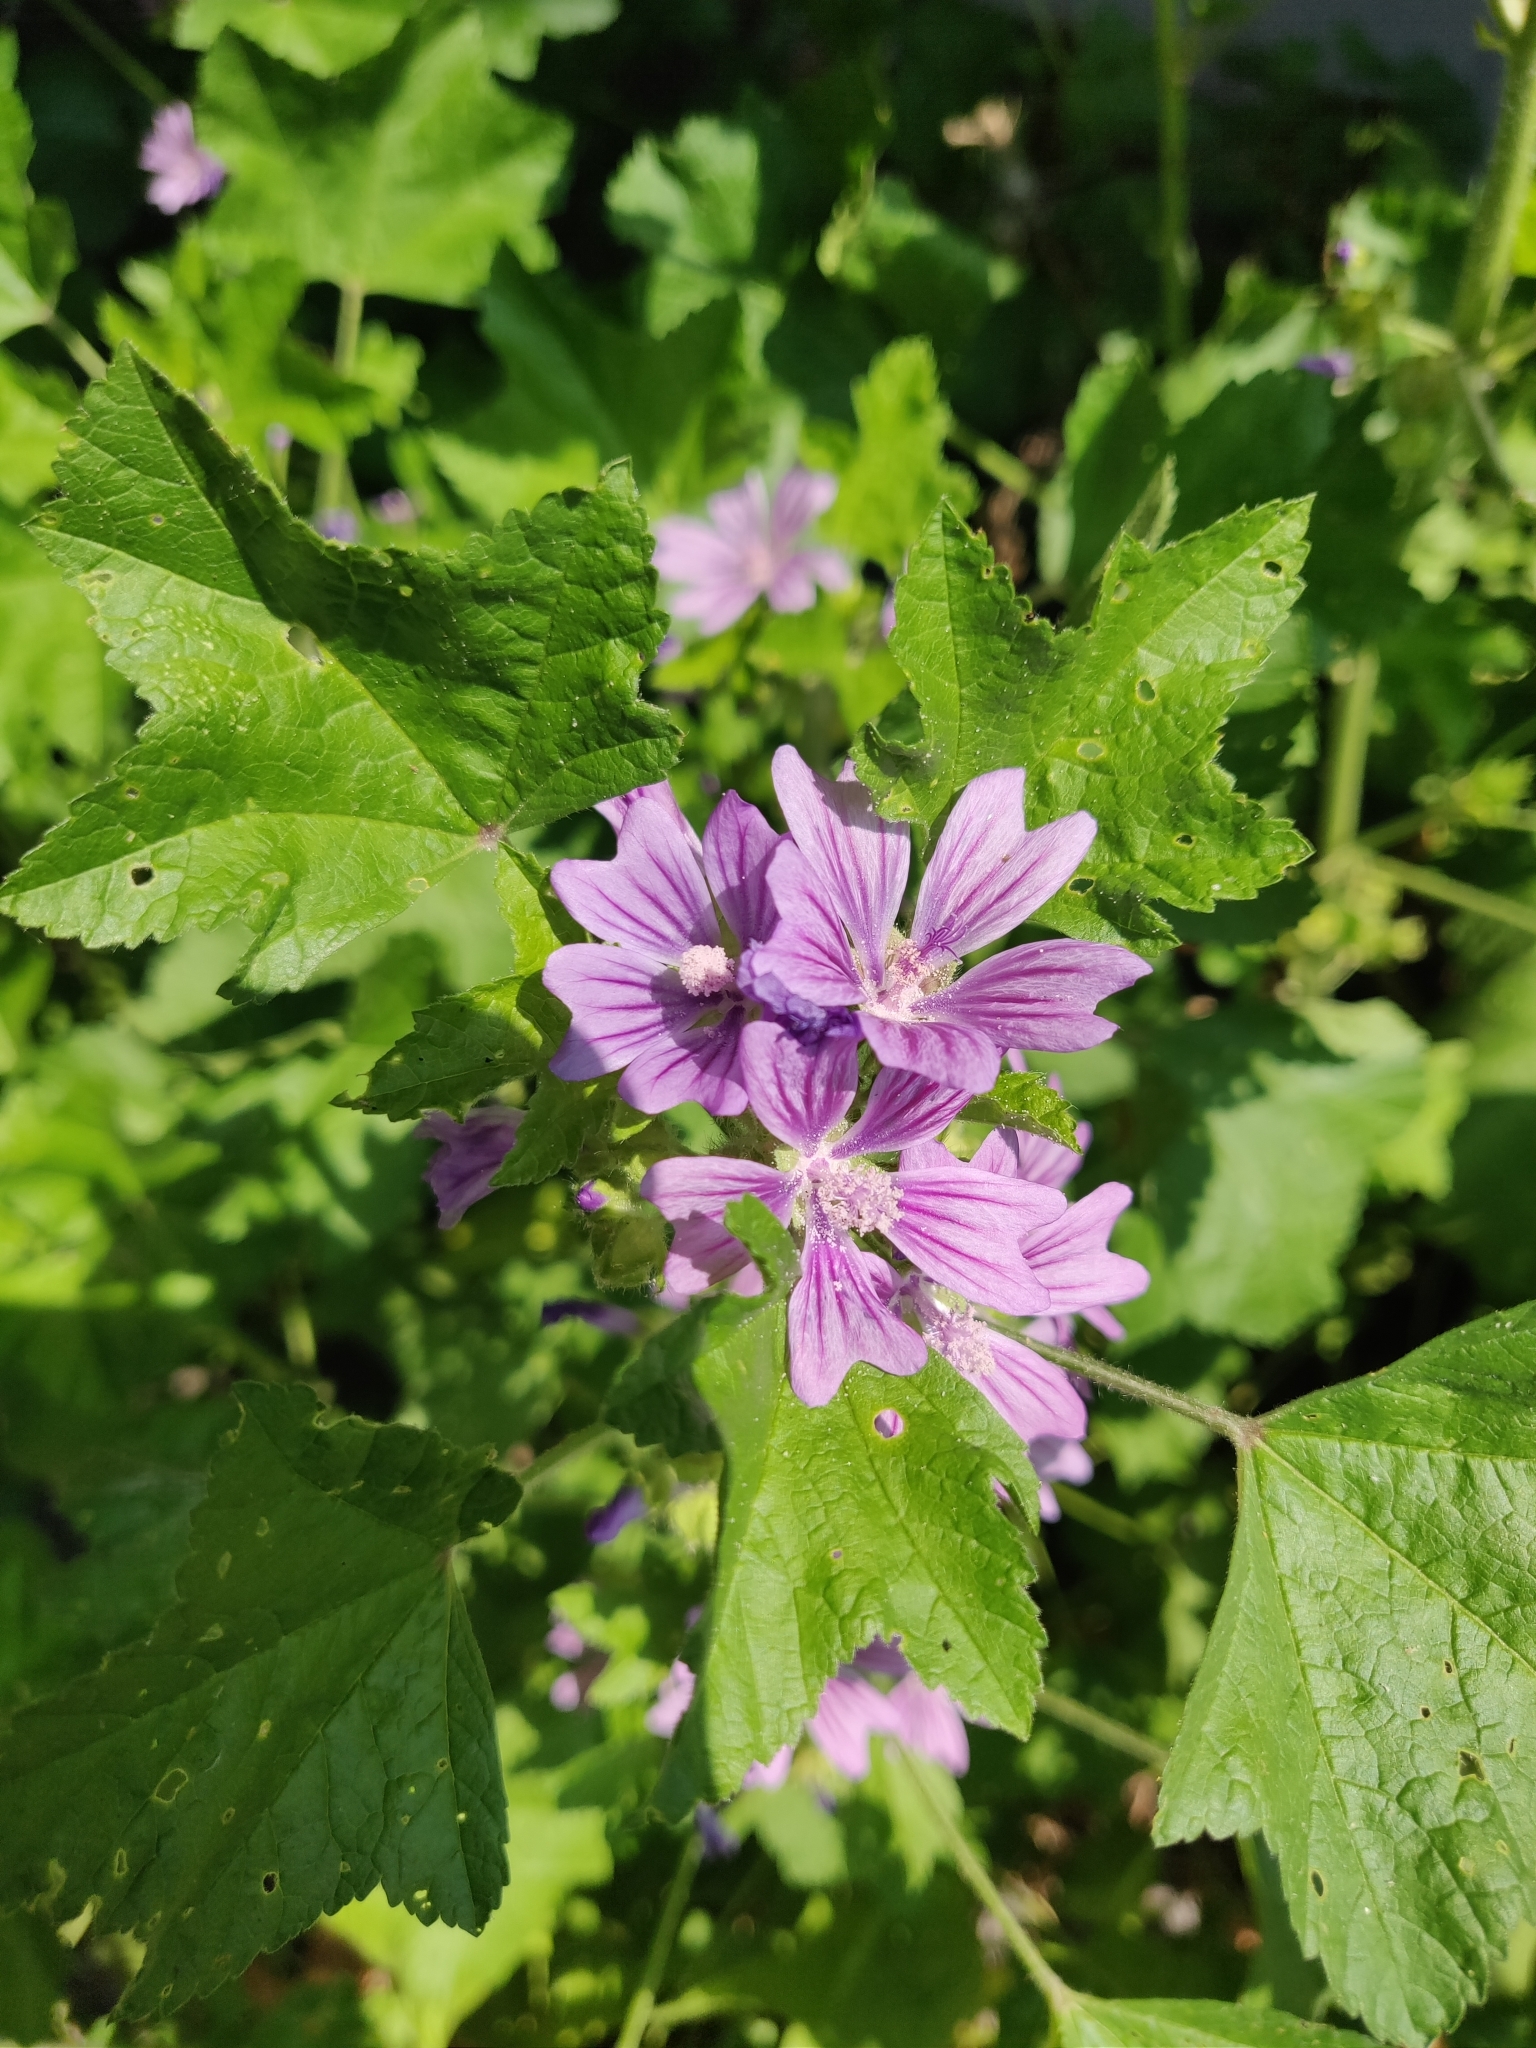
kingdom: Plantae
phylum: Tracheophyta
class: Magnoliopsida
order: Malvales
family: Malvaceae
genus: Malva
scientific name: Malva sylvestris
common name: Common mallow
